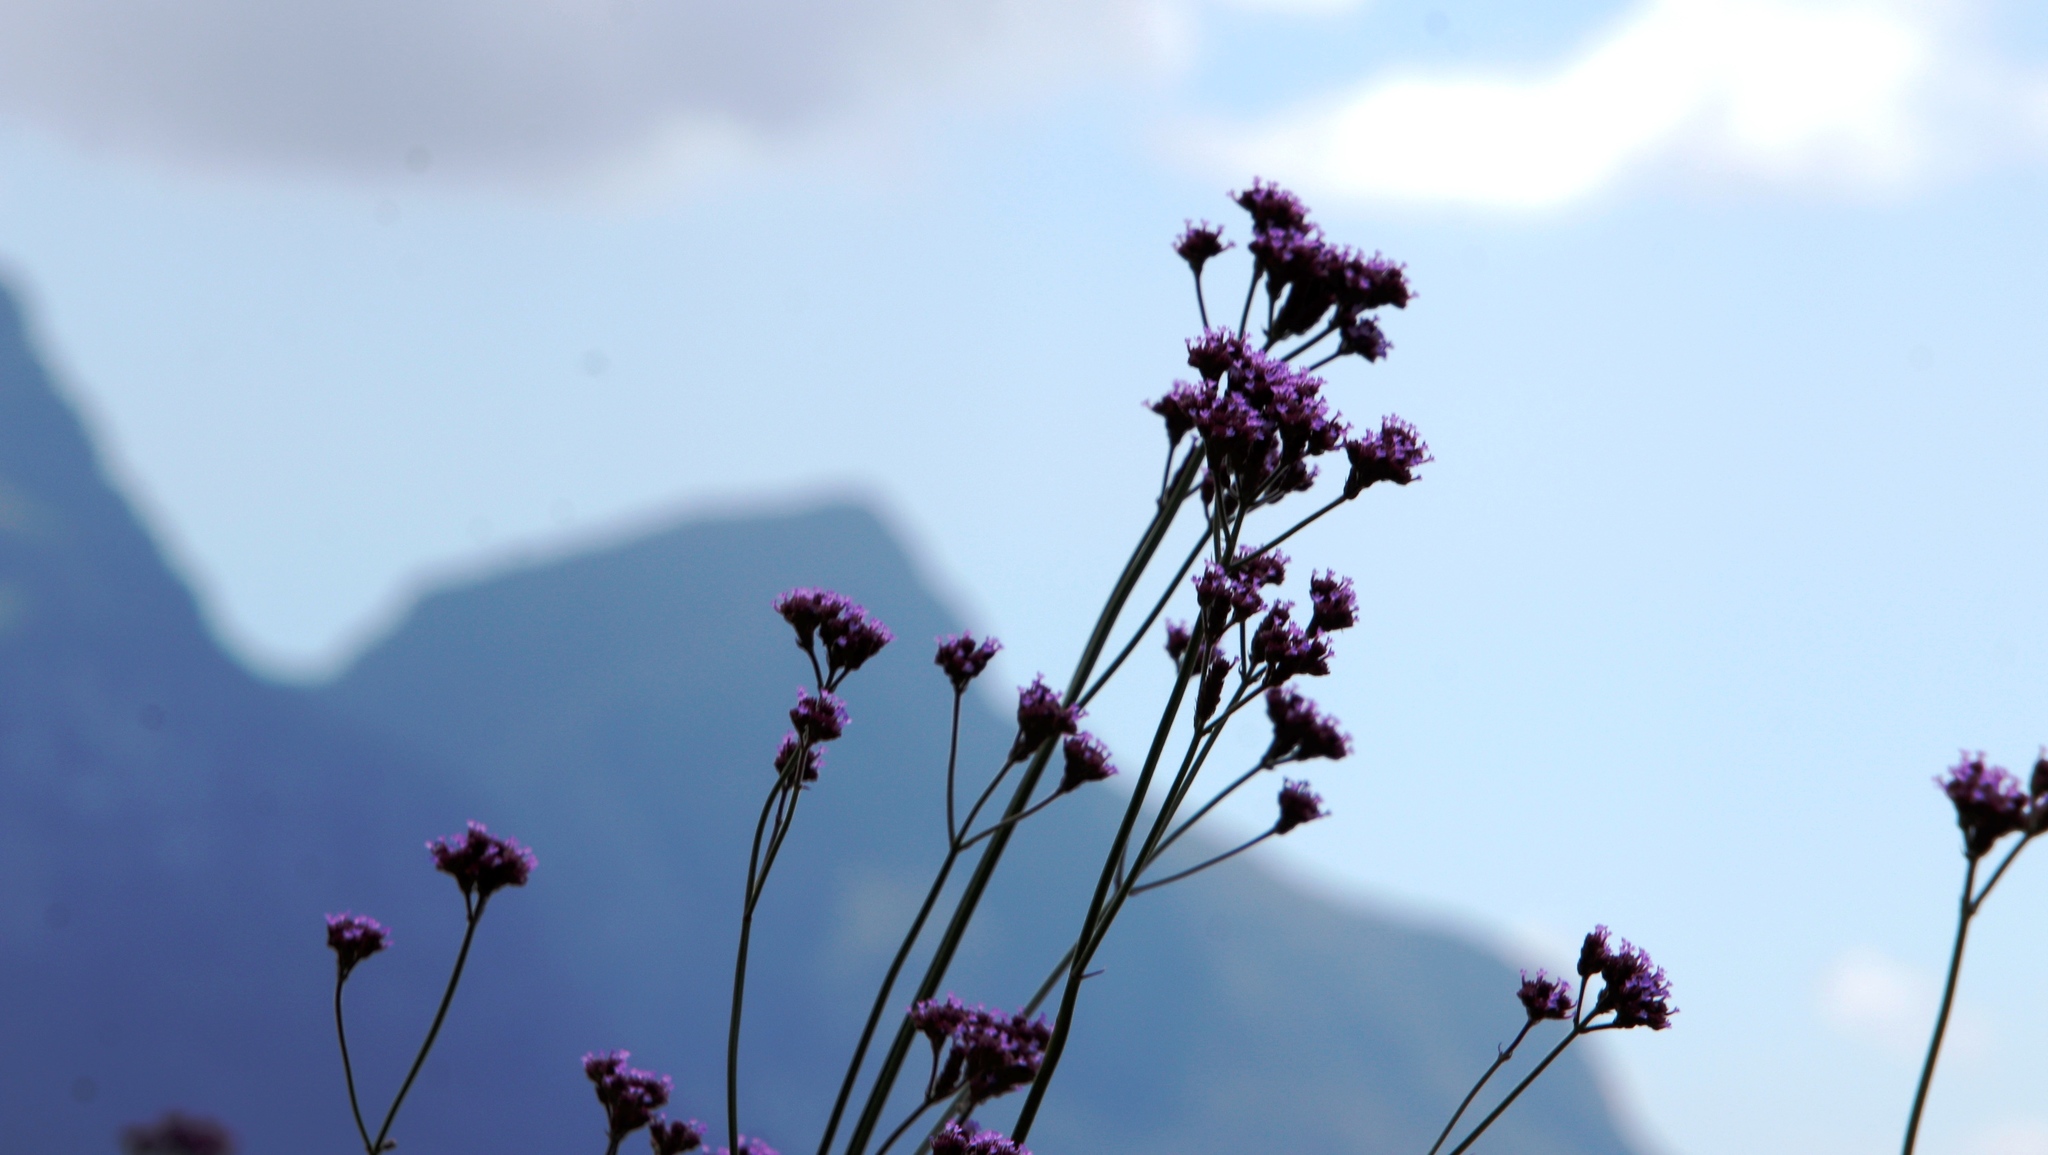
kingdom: Plantae
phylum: Tracheophyta
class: Magnoliopsida
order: Lamiales
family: Verbenaceae
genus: Verbena
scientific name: Verbena bonariensis
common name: Purpletop vervain
